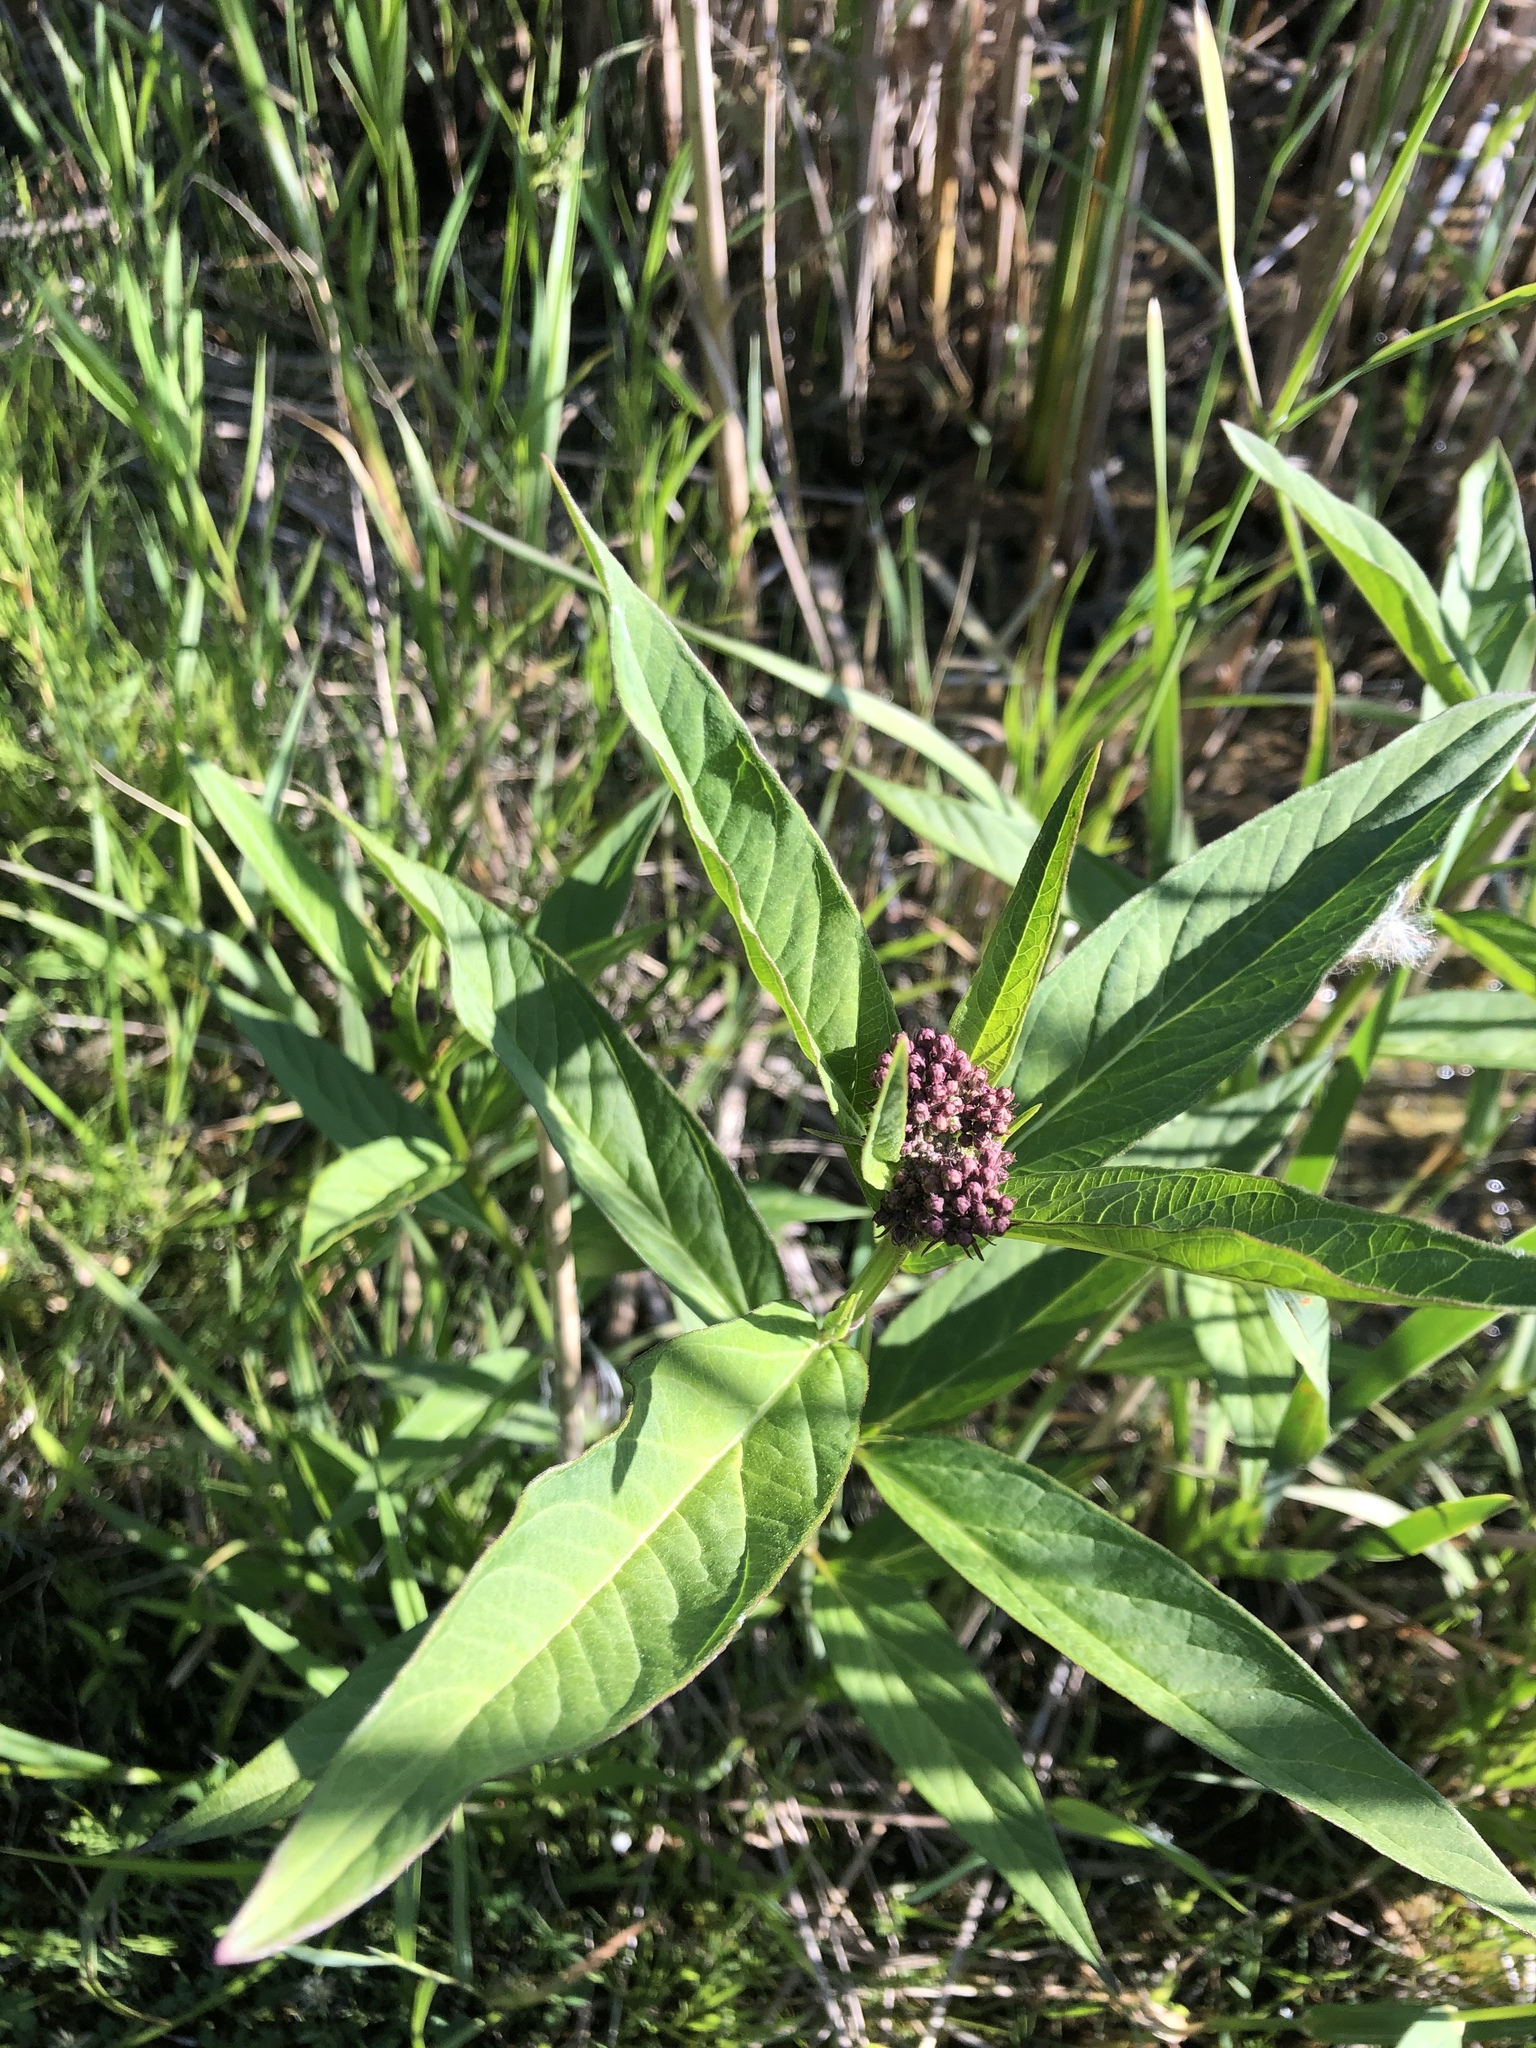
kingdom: Plantae
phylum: Tracheophyta
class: Magnoliopsida
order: Gentianales
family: Apocynaceae
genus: Asclepias
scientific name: Asclepias incarnata
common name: Swamp milkweed
